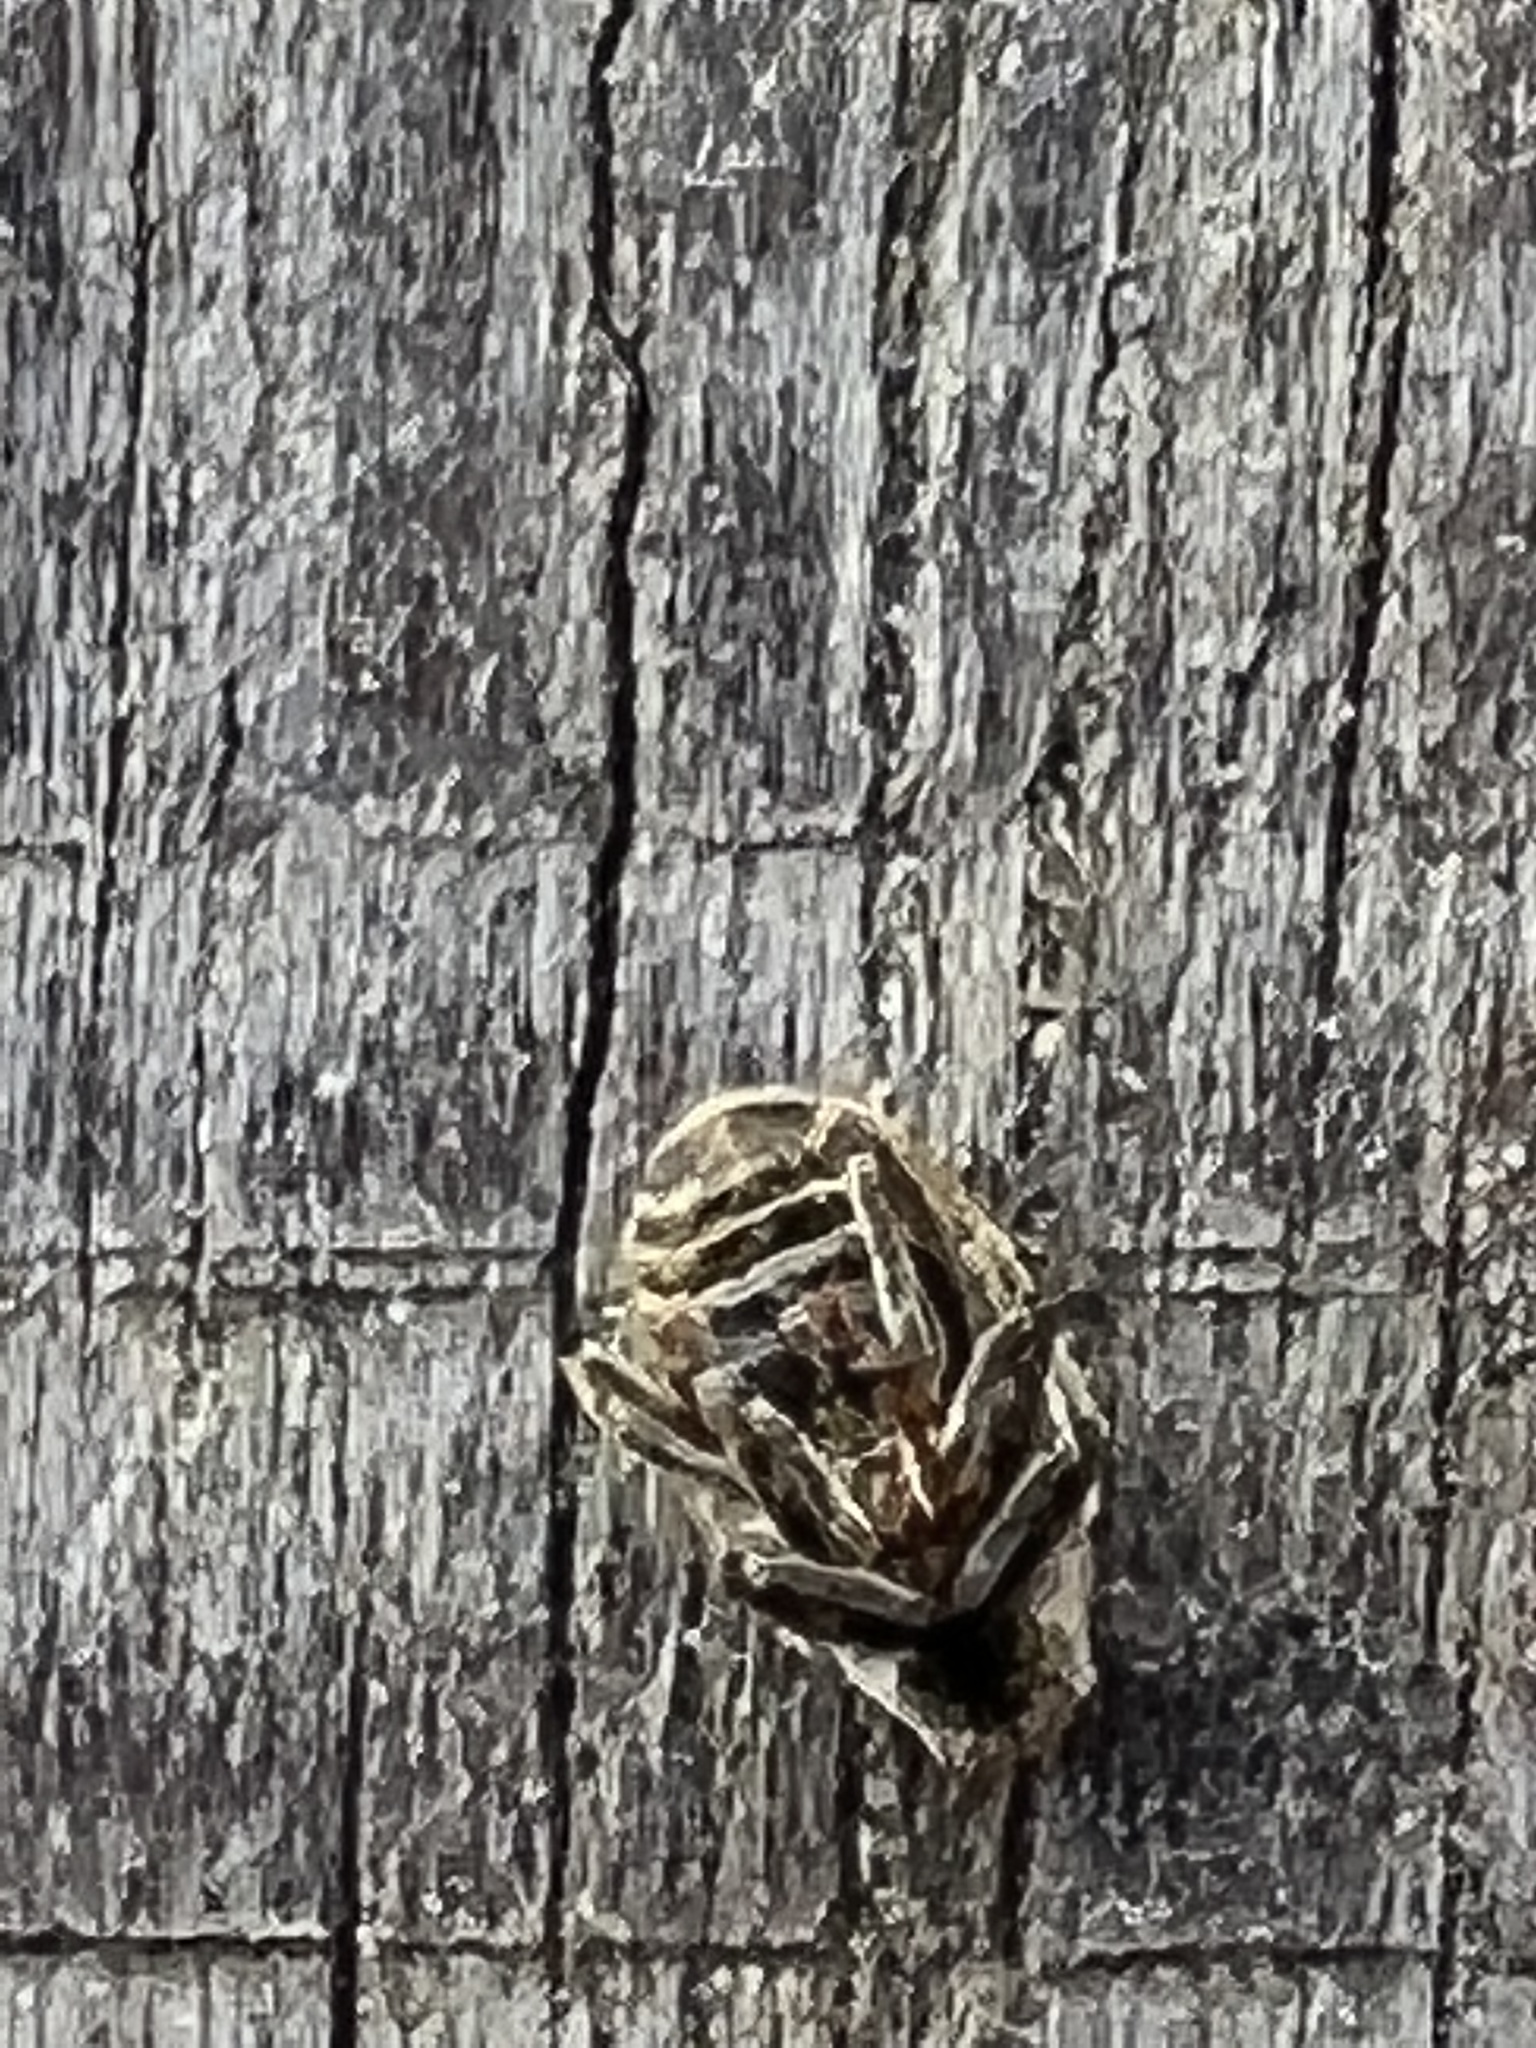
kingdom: Animalia
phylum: Arthropoda
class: Insecta
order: Coleoptera
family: Curculionidae
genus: Ceutorhynchus
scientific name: Ceutorhynchus pallidactylus
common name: Cabbage stem weavil
